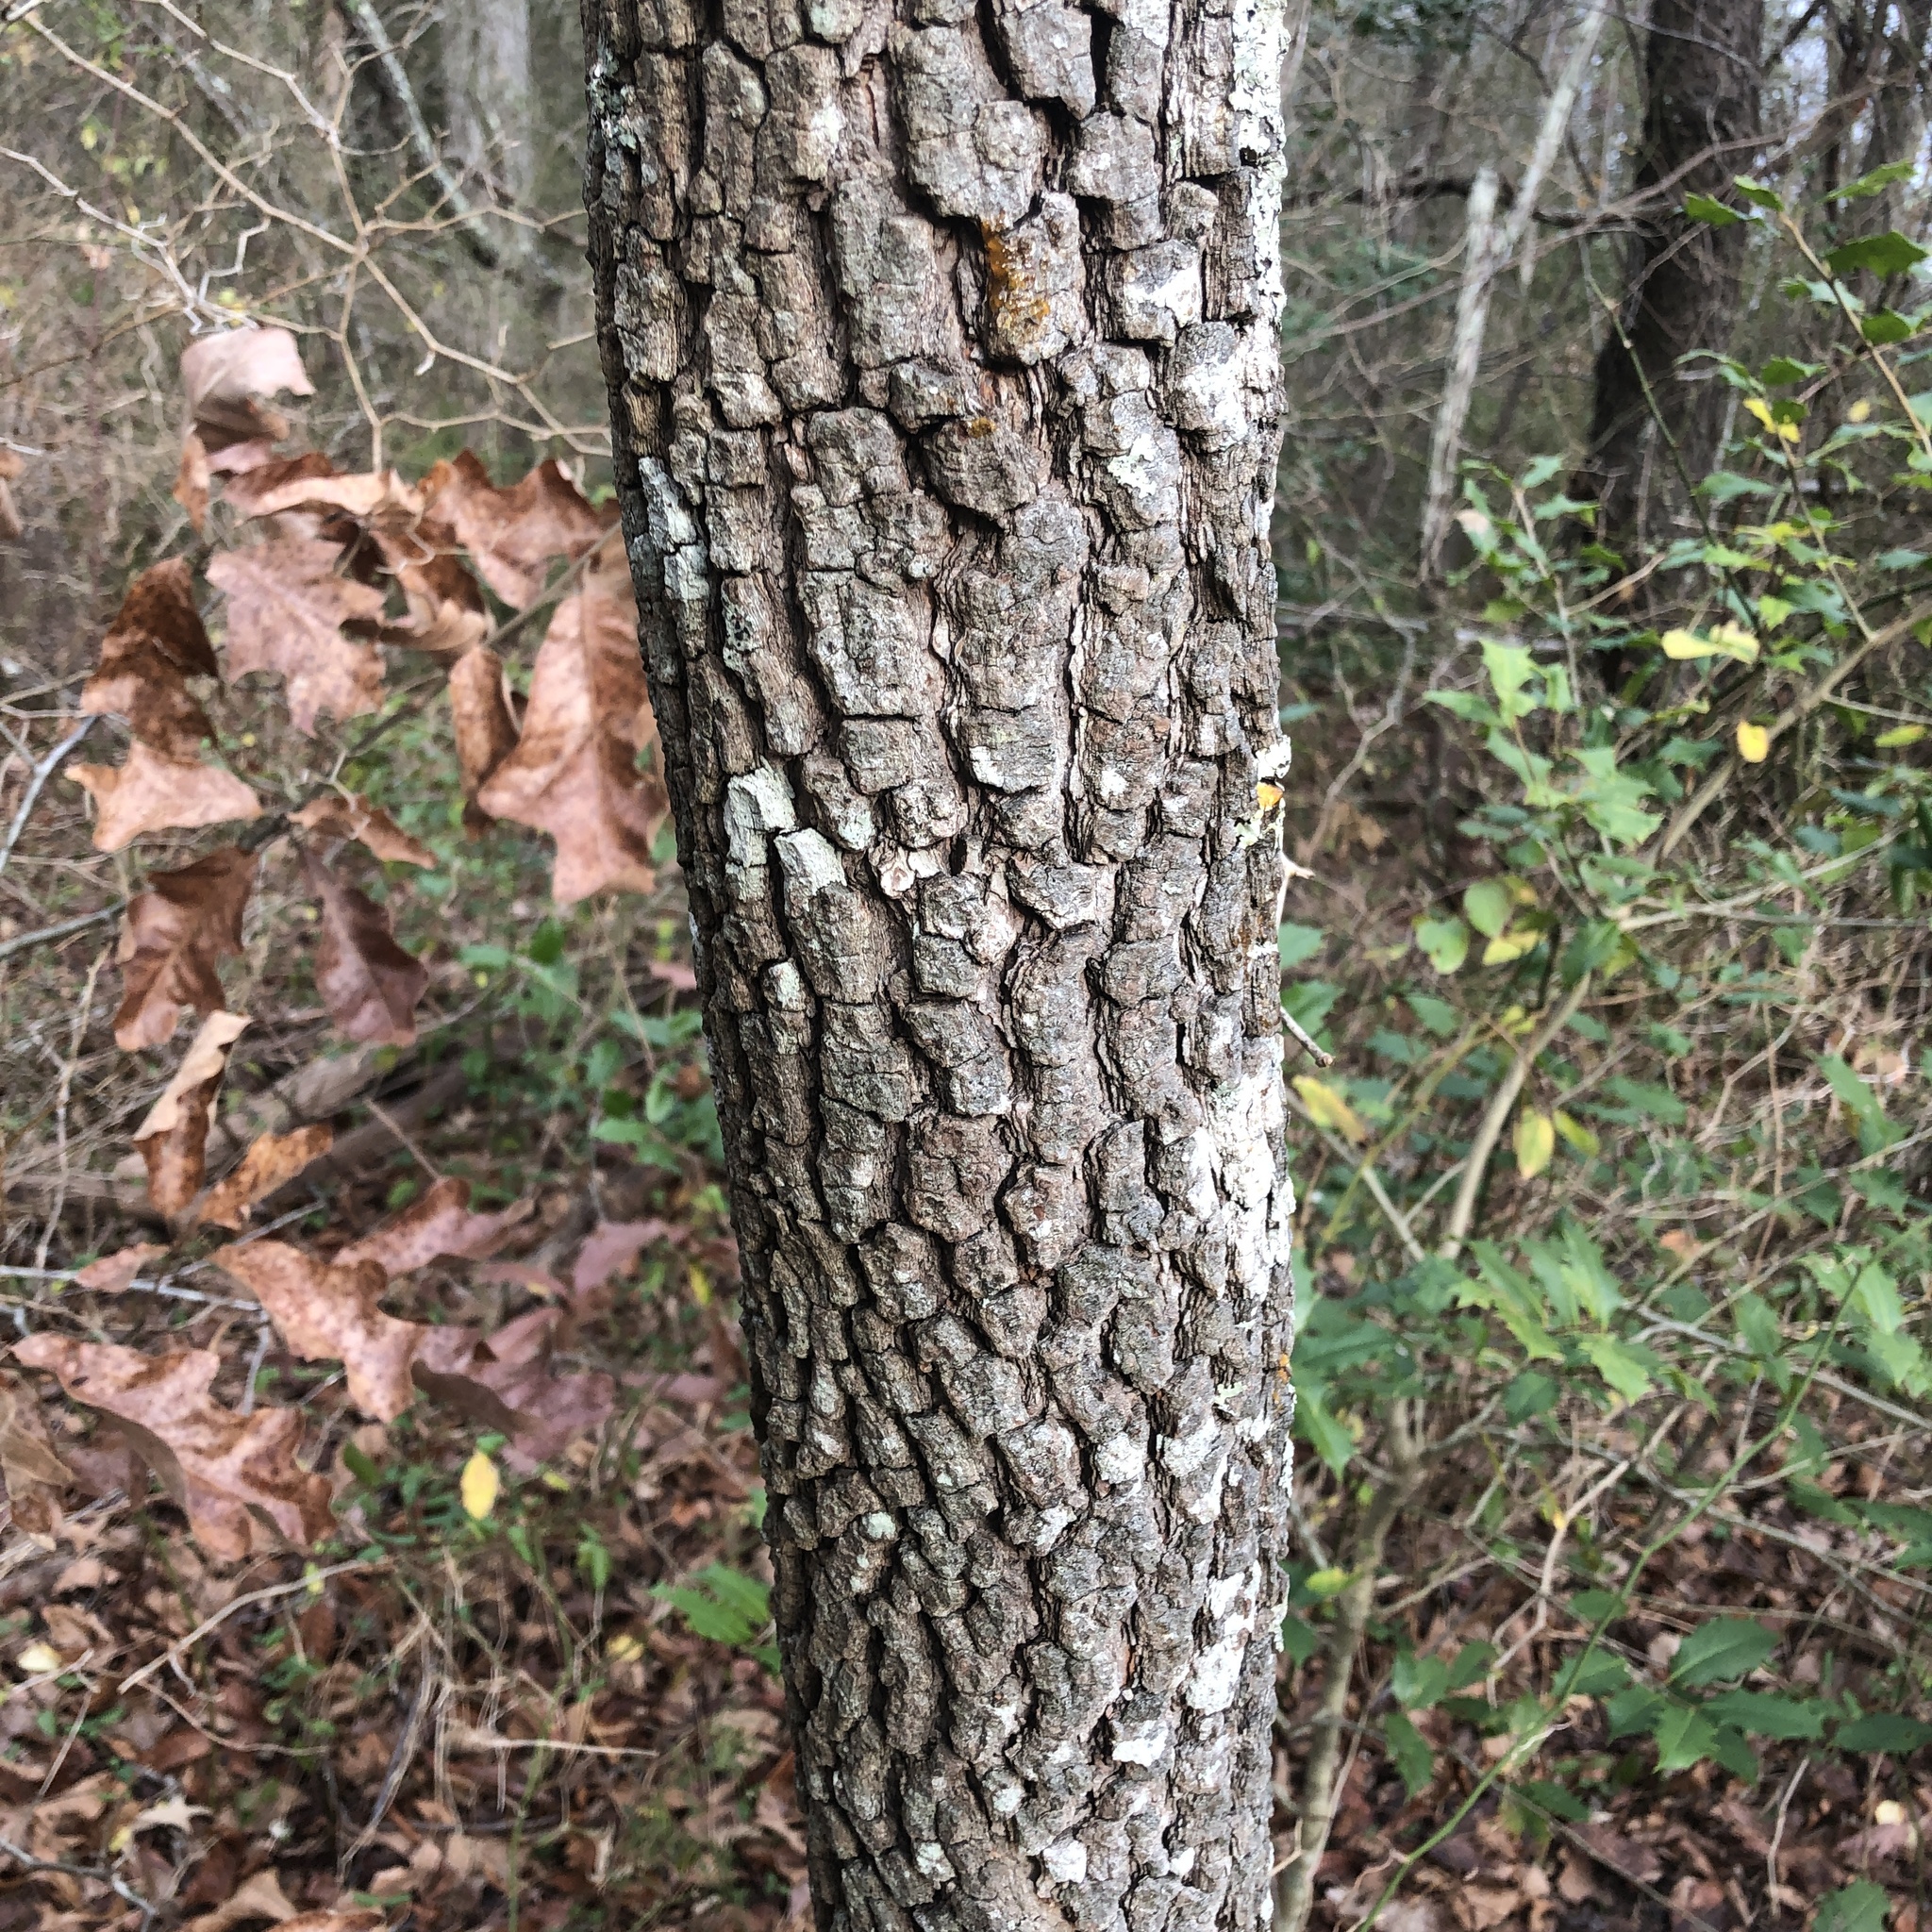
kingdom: Plantae
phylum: Tracheophyta
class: Magnoliopsida
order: Ericales
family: Ebenaceae
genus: Diospyros
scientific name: Diospyros virginiana
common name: Persimmon
